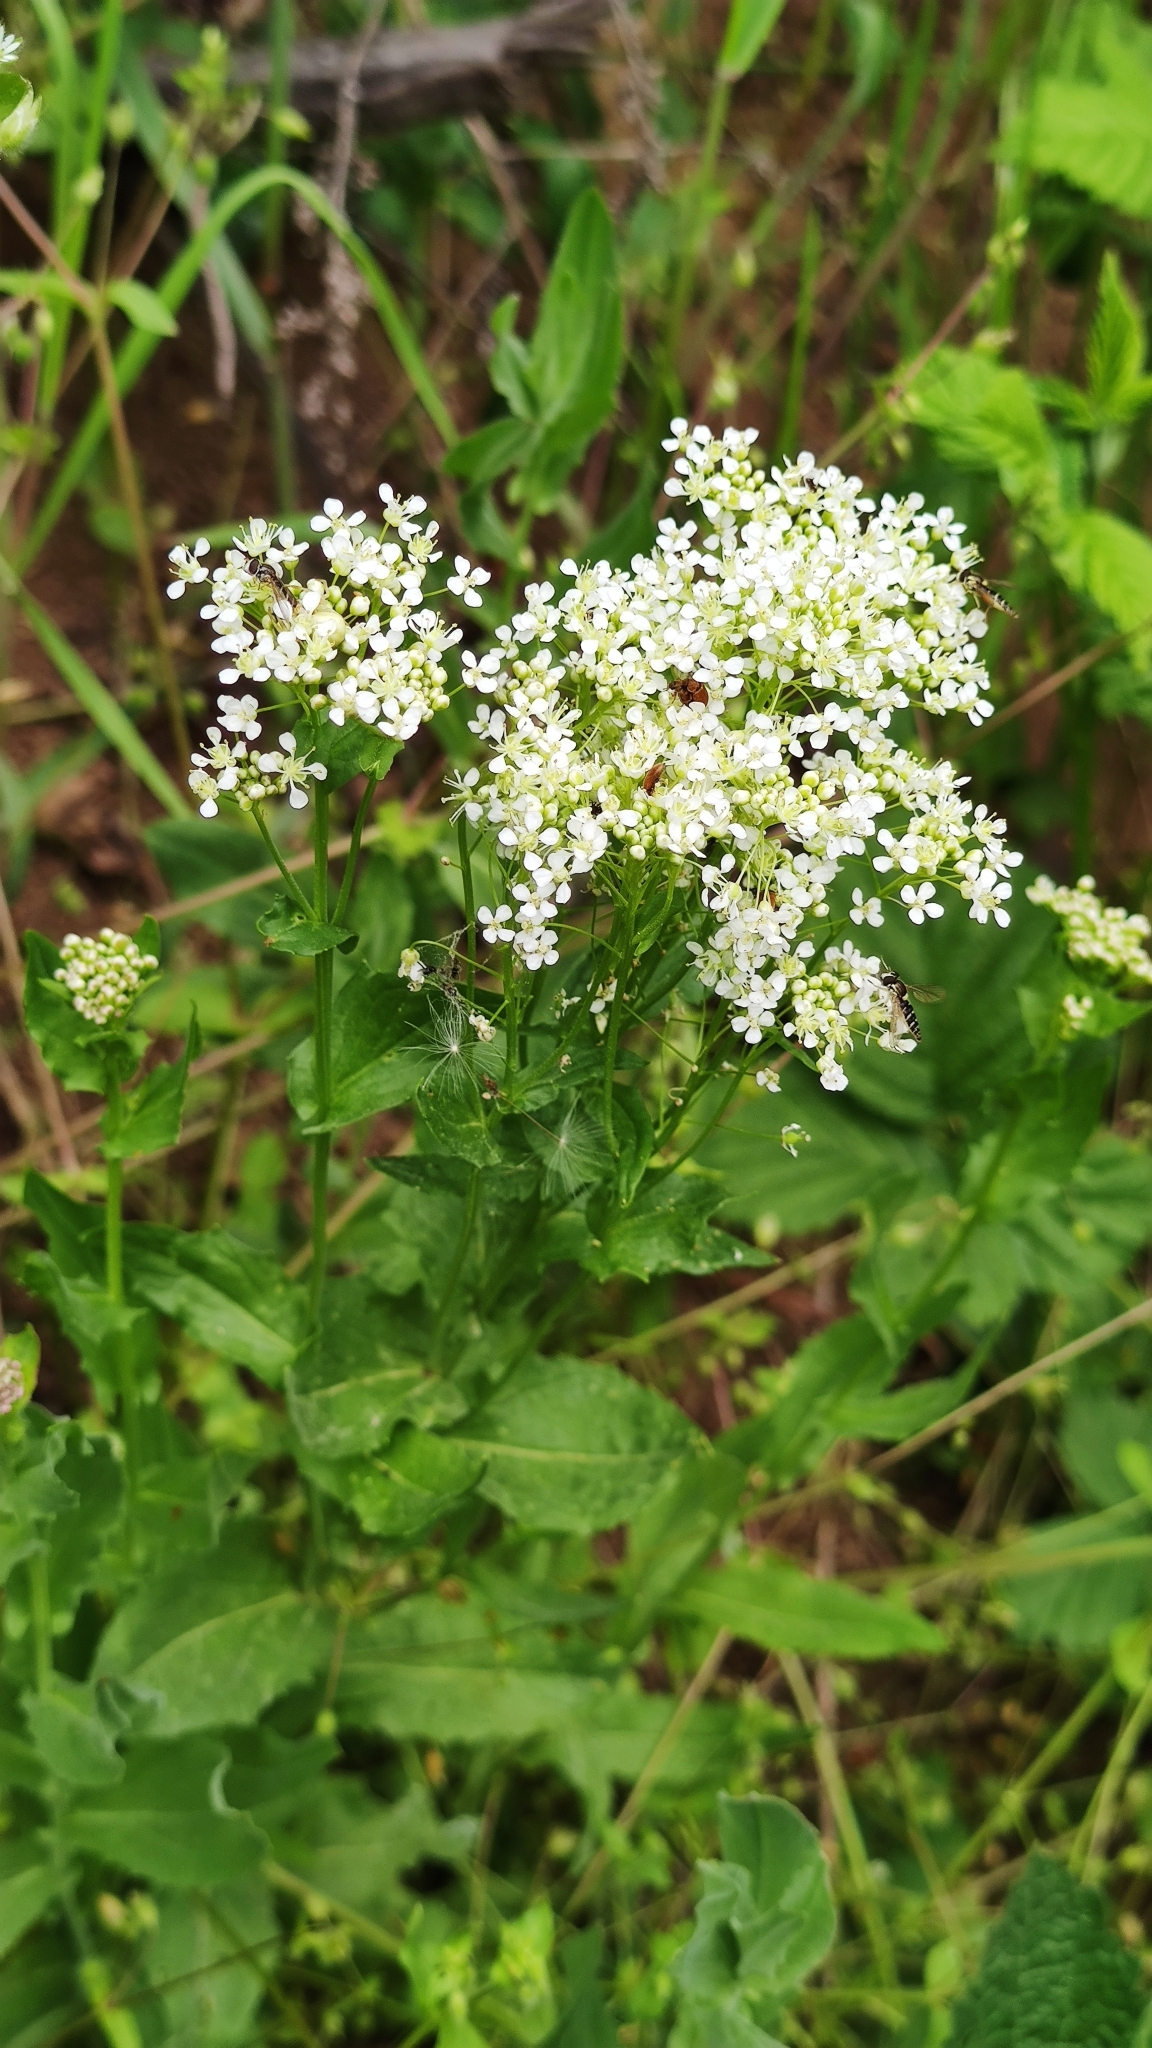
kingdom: Plantae
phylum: Tracheophyta
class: Magnoliopsida
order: Brassicales
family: Brassicaceae
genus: Lepidium
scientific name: Lepidium draba
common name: Hoary cress
